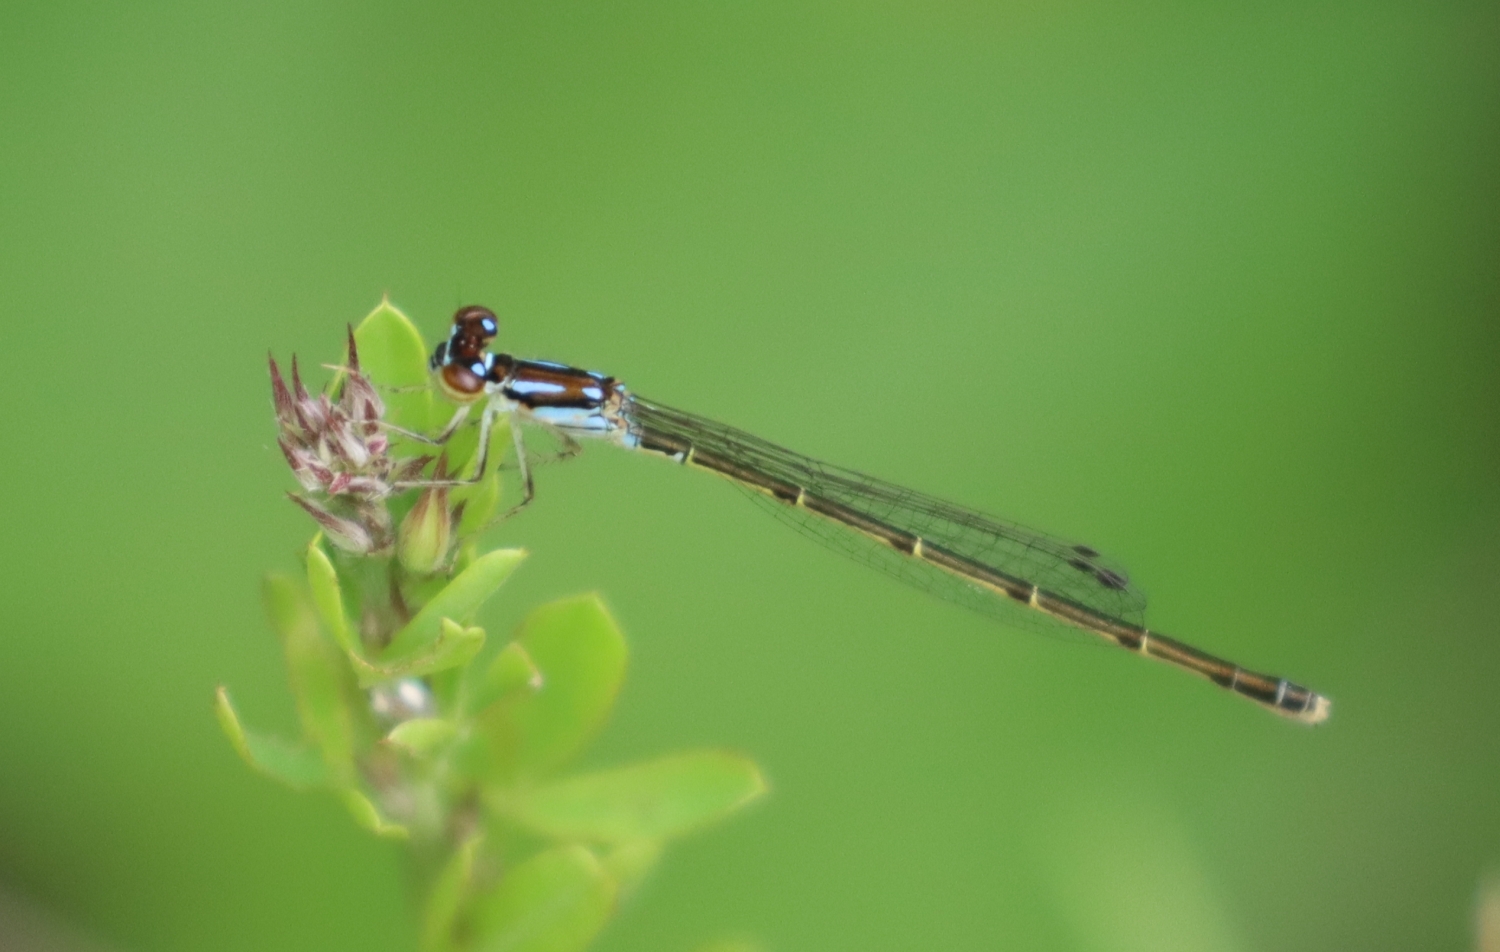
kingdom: Animalia
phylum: Arthropoda
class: Insecta
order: Odonata
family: Coenagrionidae
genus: Ischnura
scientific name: Ischnura posita
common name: Fragile forktail
